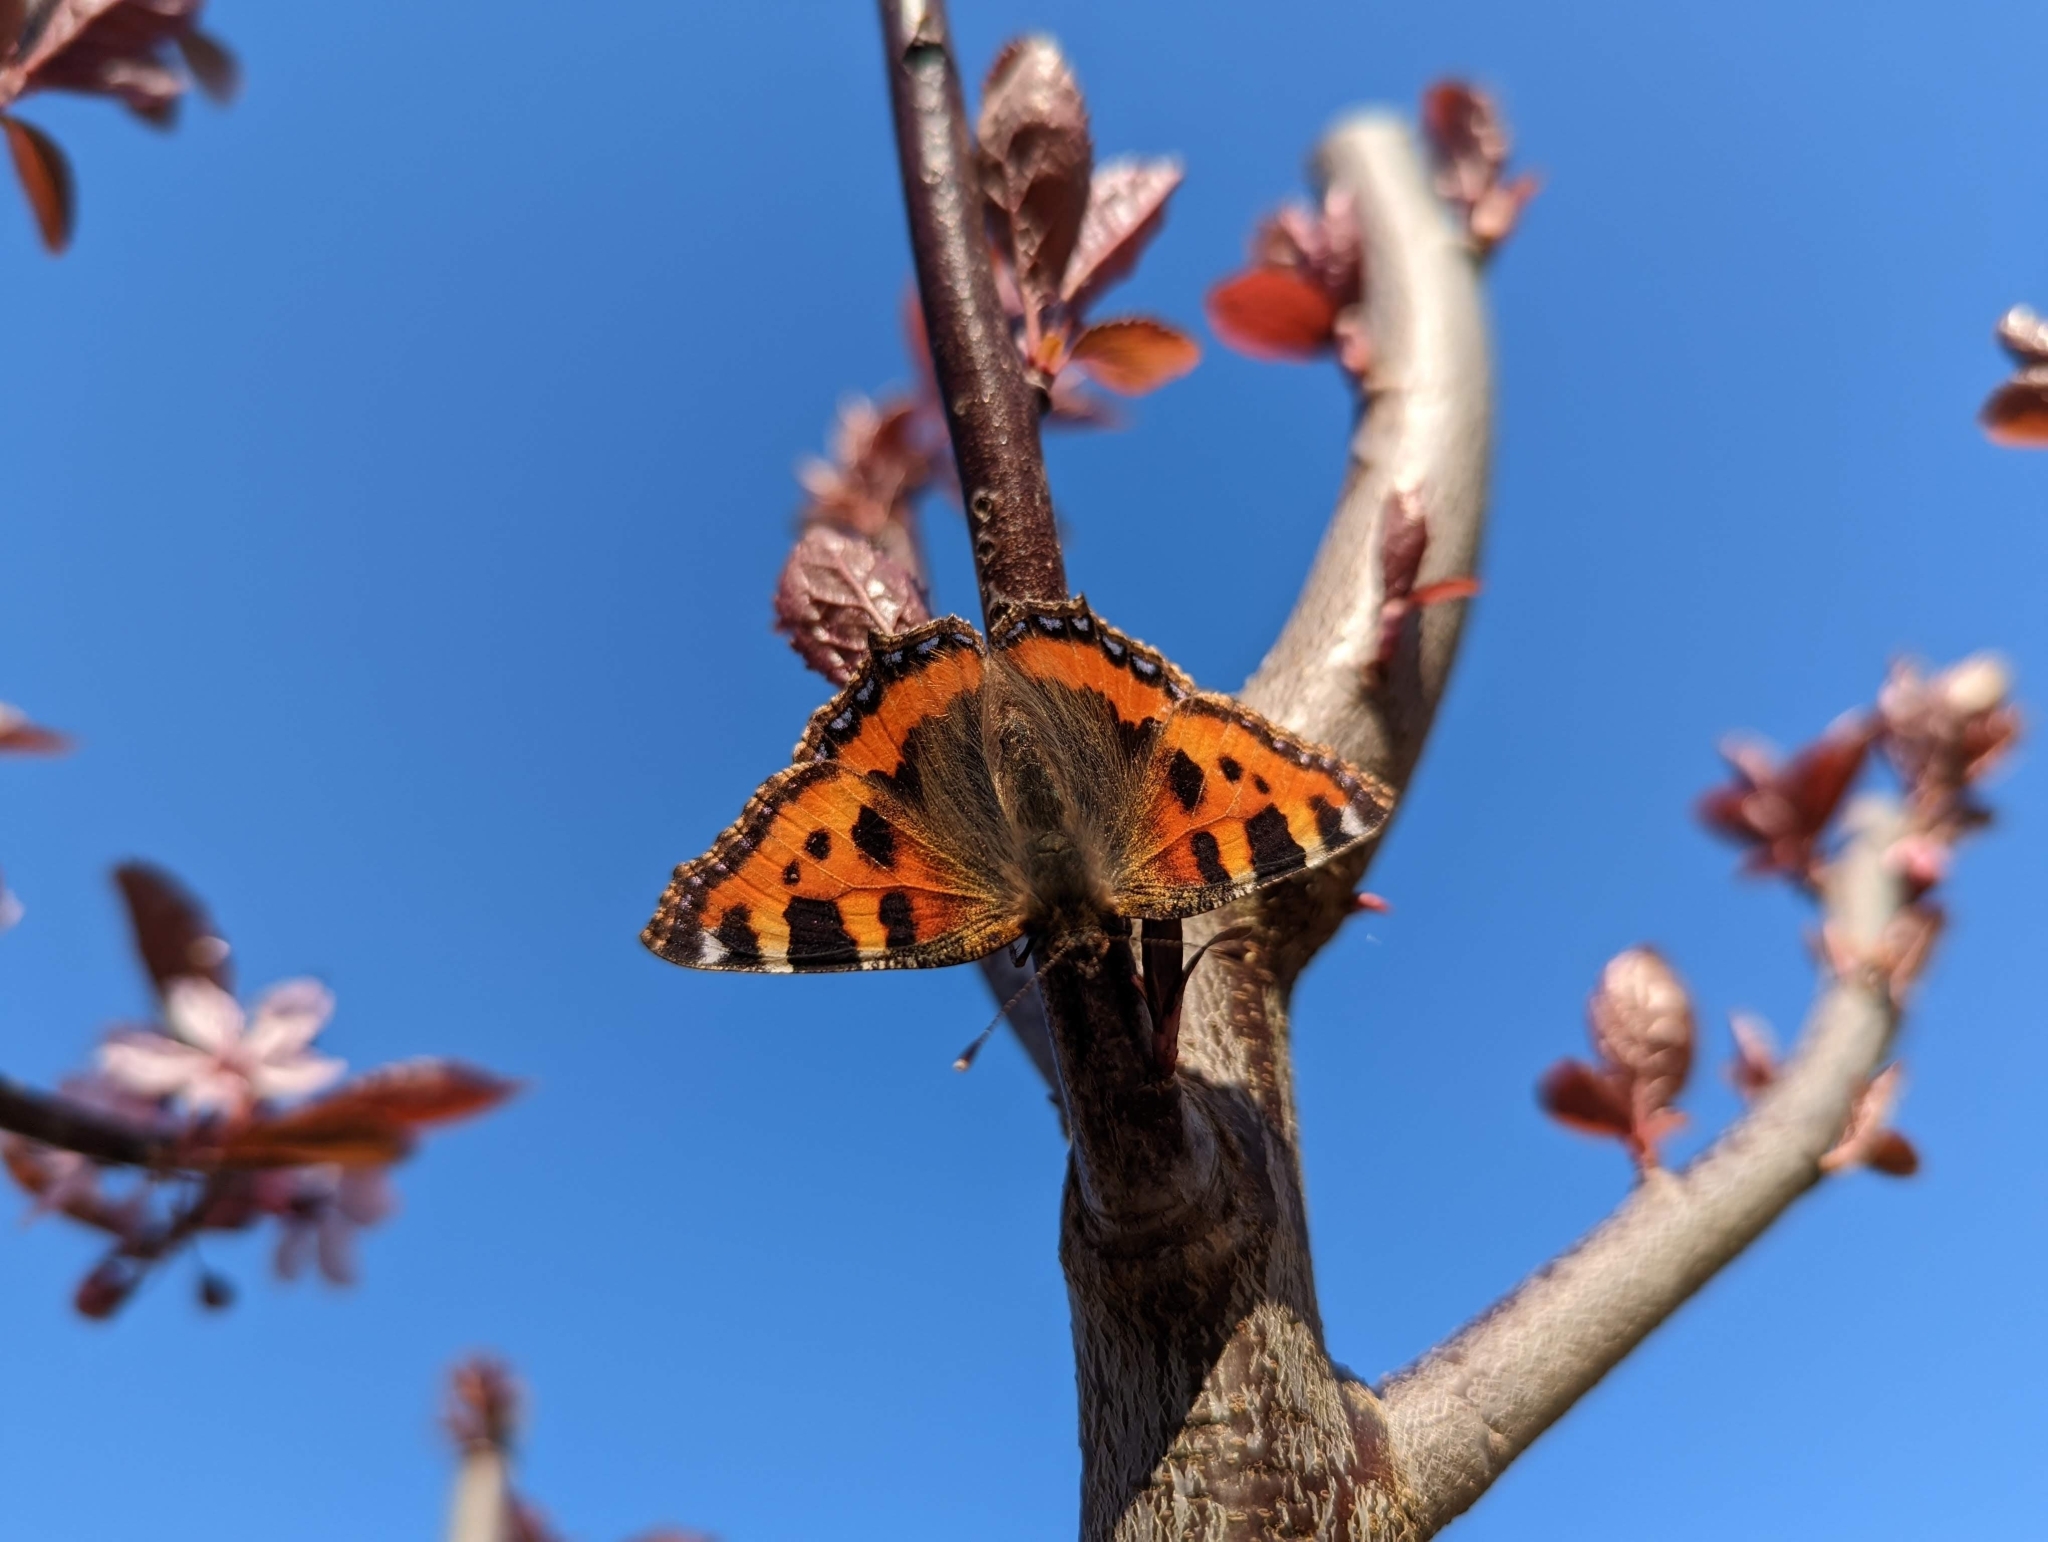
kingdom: Animalia
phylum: Arthropoda
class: Insecta
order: Lepidoptera
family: Nymphalidae
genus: Aglais
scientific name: Aglais urticae
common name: Small tortoiseshell
